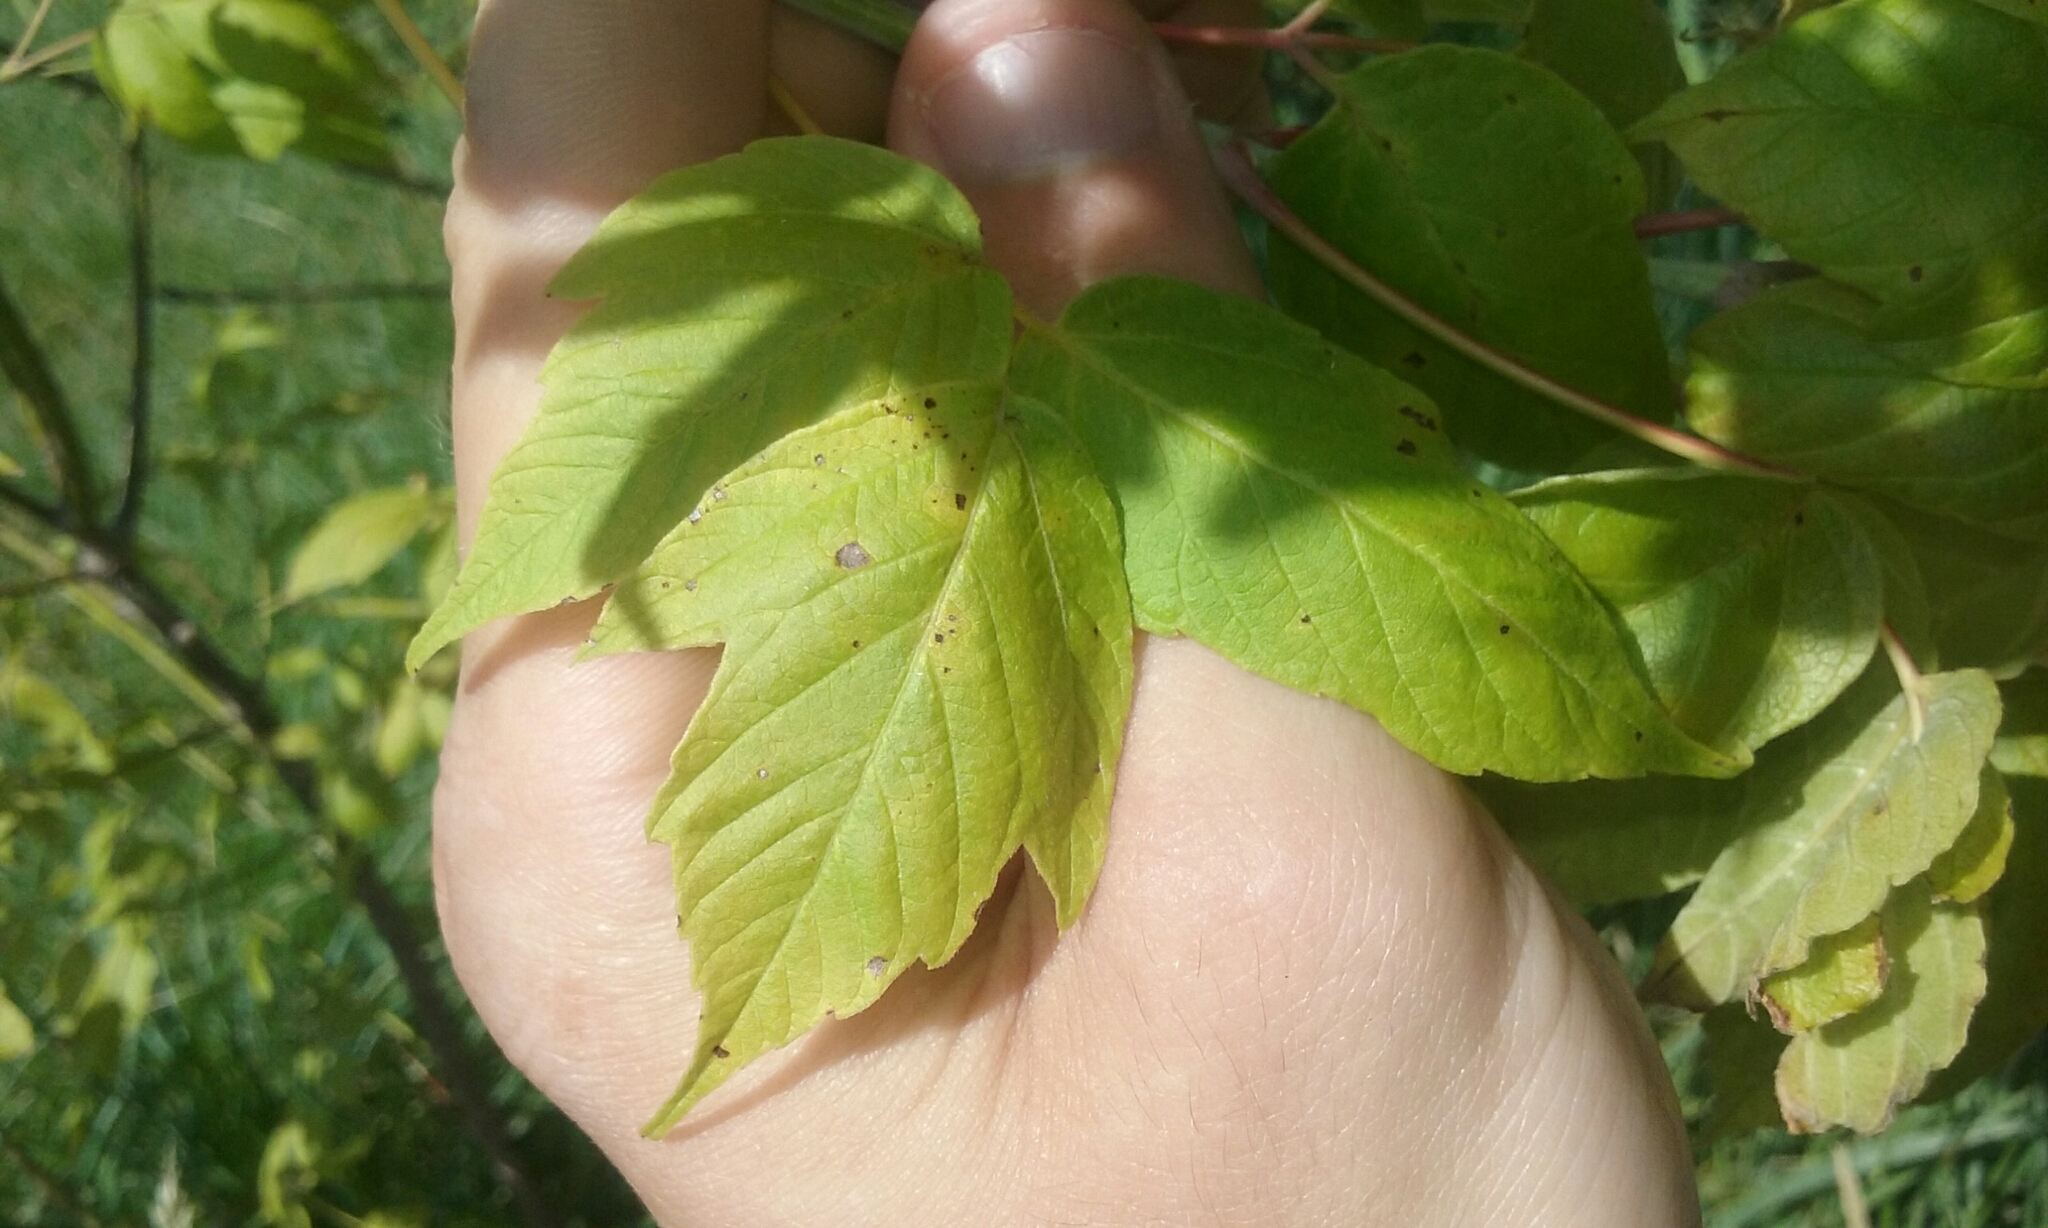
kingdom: Plantae
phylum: Tracheophyta
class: Magnoliopsida
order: Sapindales
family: Sapindaceae
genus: Acer
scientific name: Acer negundo
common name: Ashleaf maple
